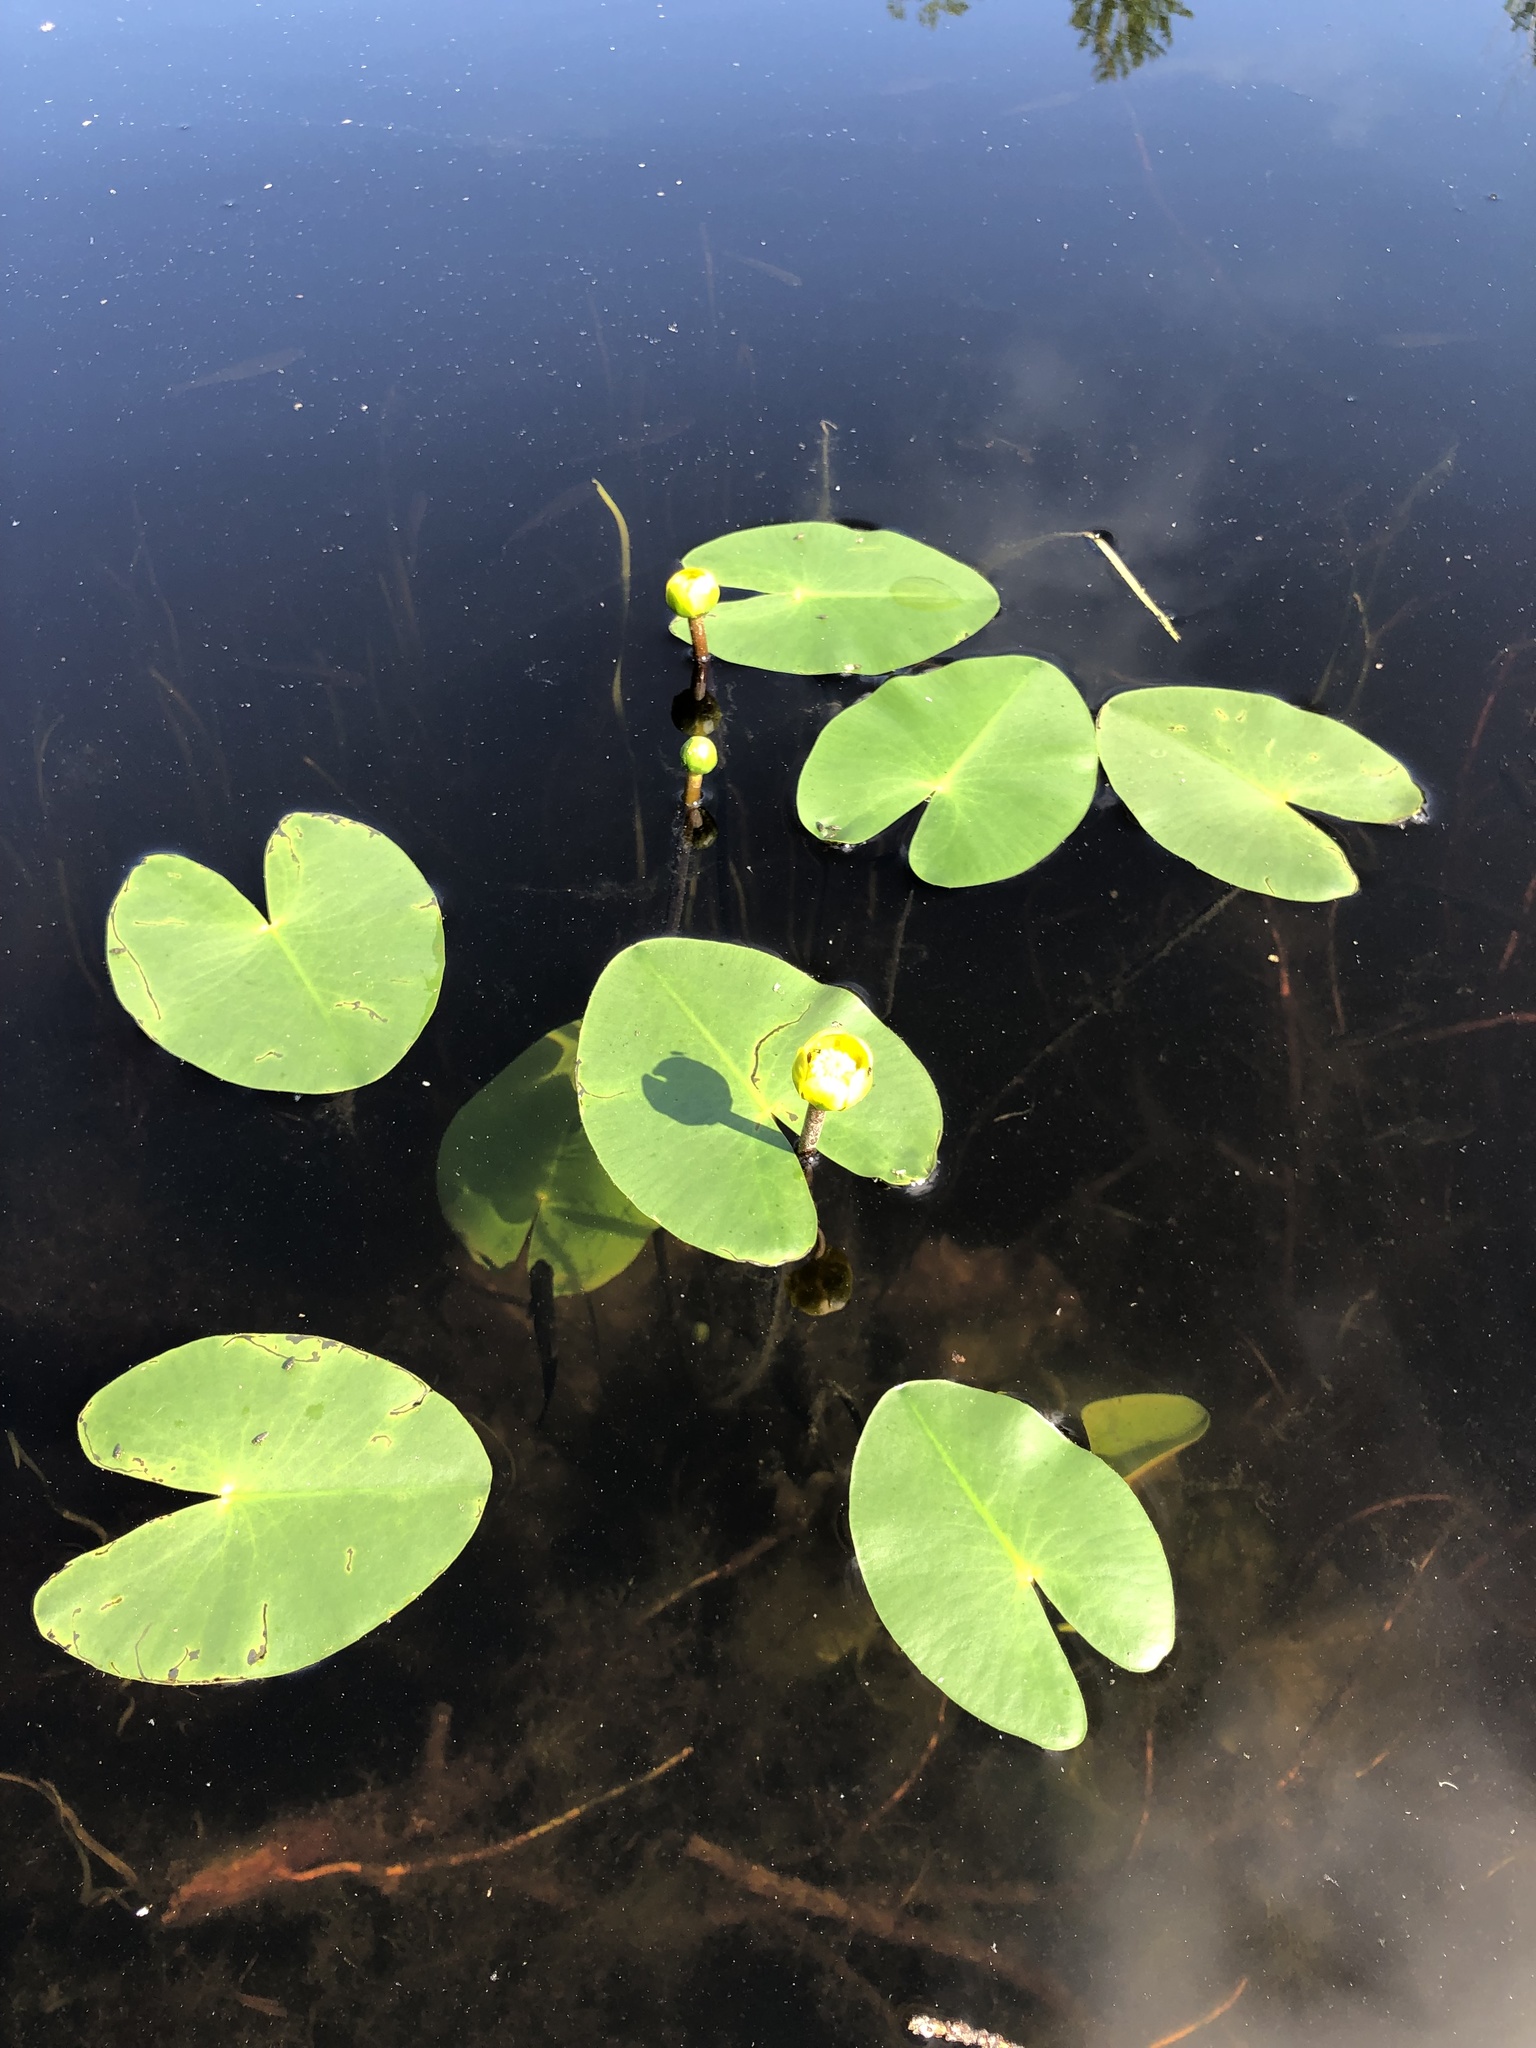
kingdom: Plantae
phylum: Tracheophyta
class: Magnoliopsida
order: Nymphaeales
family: Nymphaeaceae
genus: Nuphar
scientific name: Nuphar pumila
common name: Least water-lily
